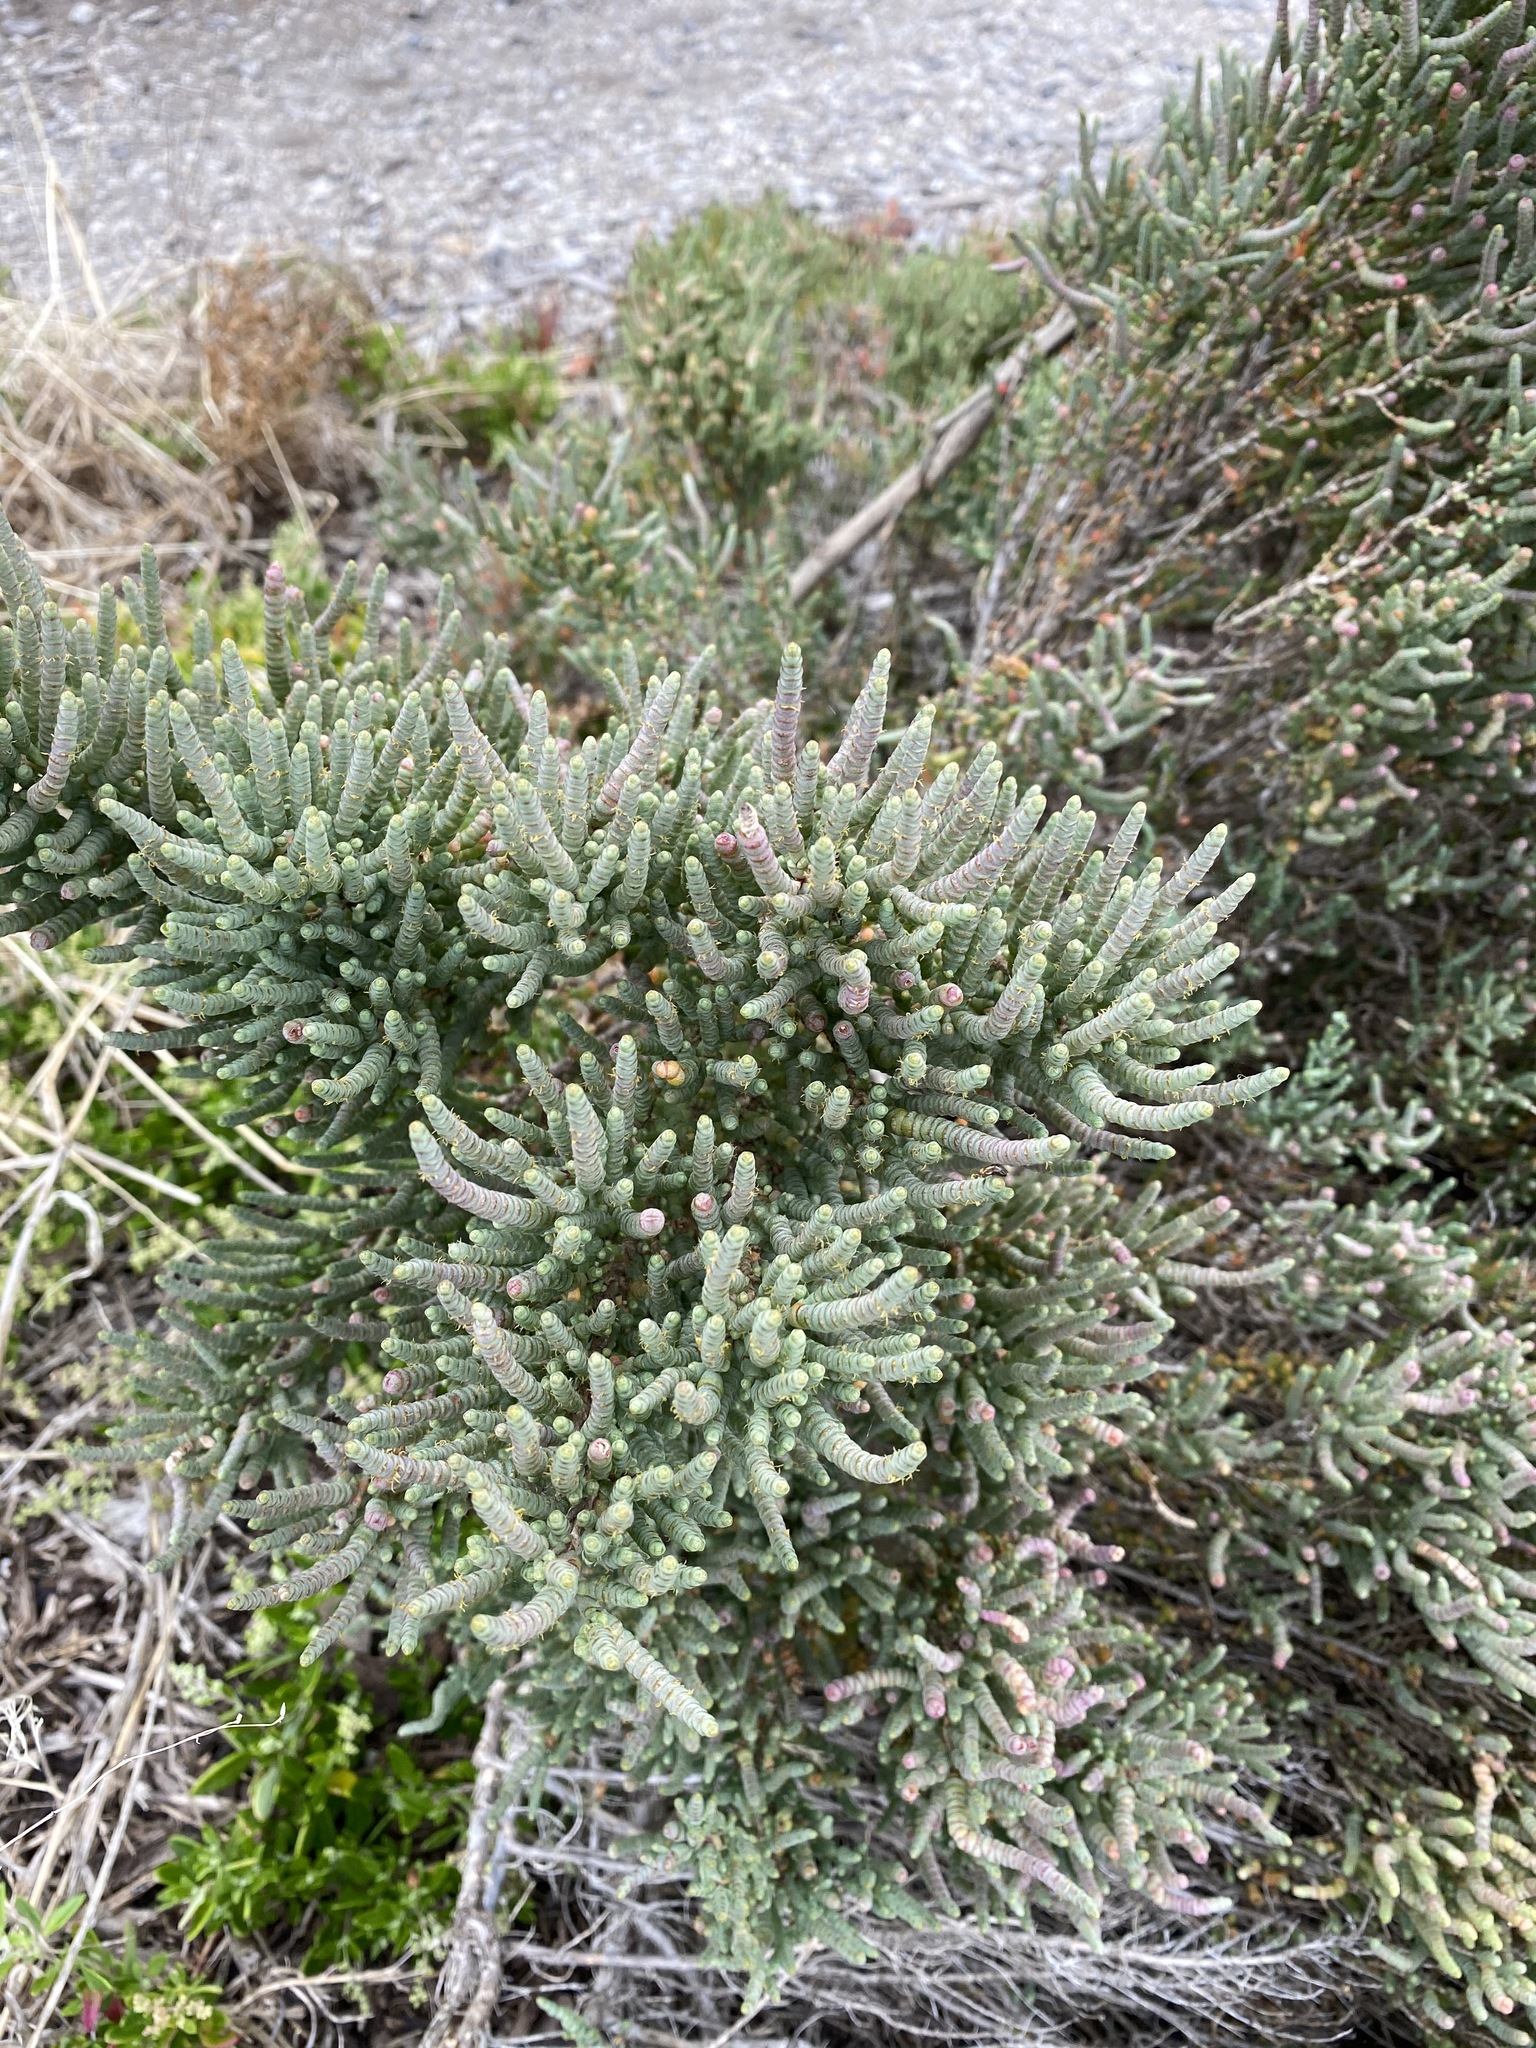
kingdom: Plantae
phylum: Tracheophyta
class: Magnoliopsida
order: Caryophyllales
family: Amaranthaceae
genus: Tecticornia
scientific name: Tecticornia pergranulata
